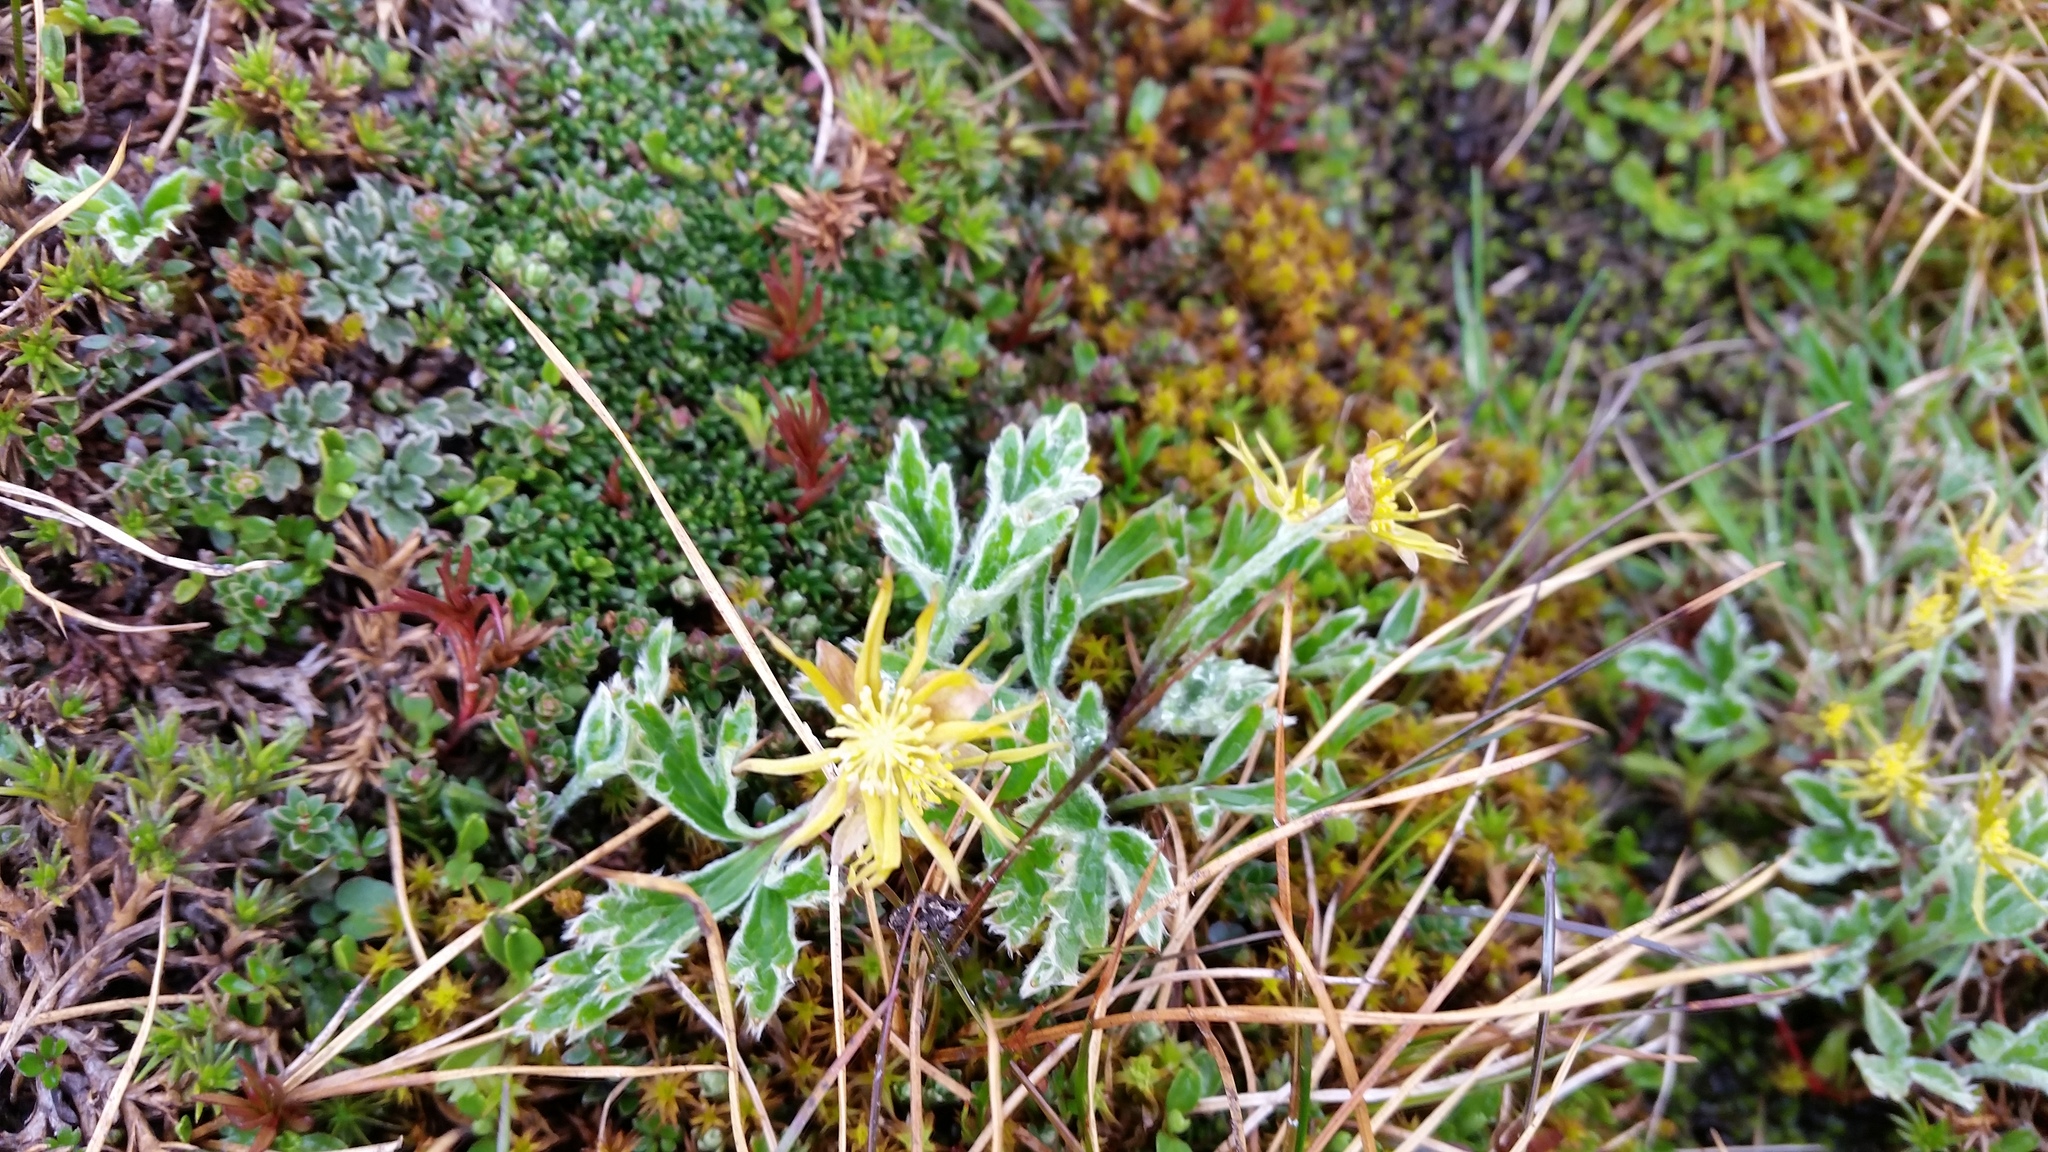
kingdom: Plantae
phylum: Tracheophyta
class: Magnoliopsida
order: Ranunculales
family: Ranunculaceae
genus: Hamadryas
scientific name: Hamadryas magellanica
